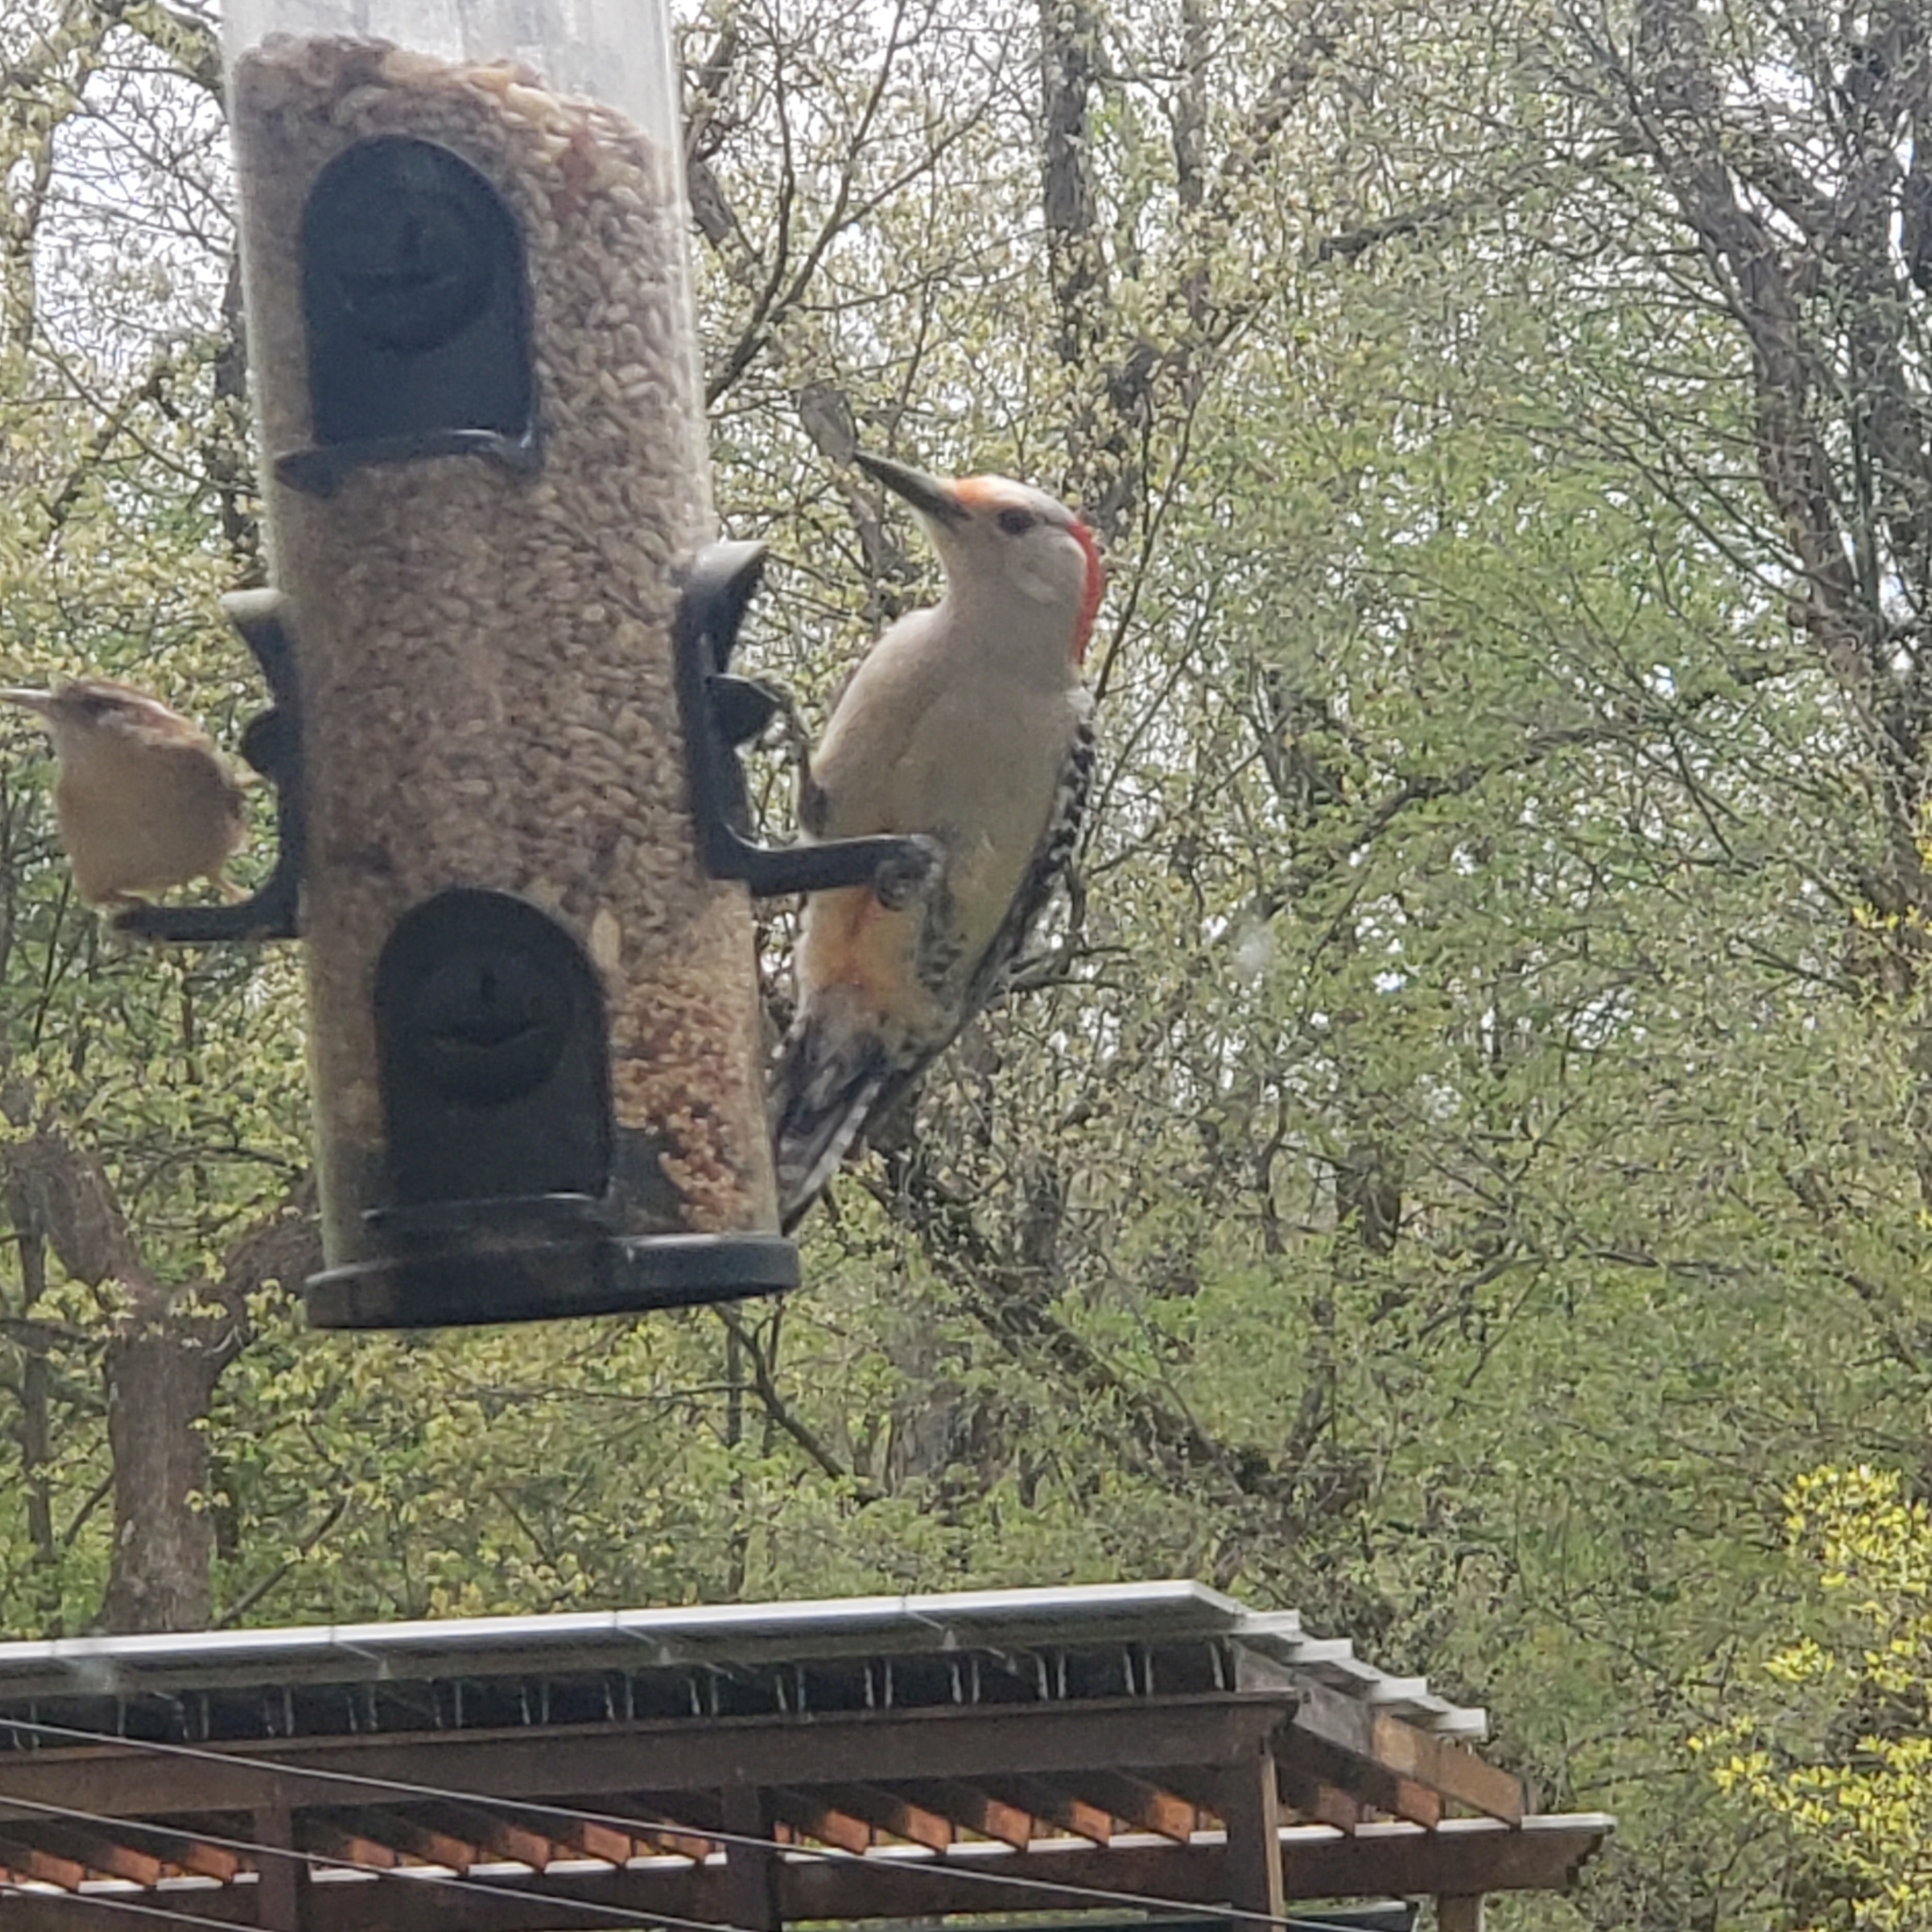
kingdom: Animalia
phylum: Chordata
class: Aves
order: Piciformes
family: Picidae
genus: Melanerpes
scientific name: Melanerpes carolinus
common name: Red-bellied woodpecker
